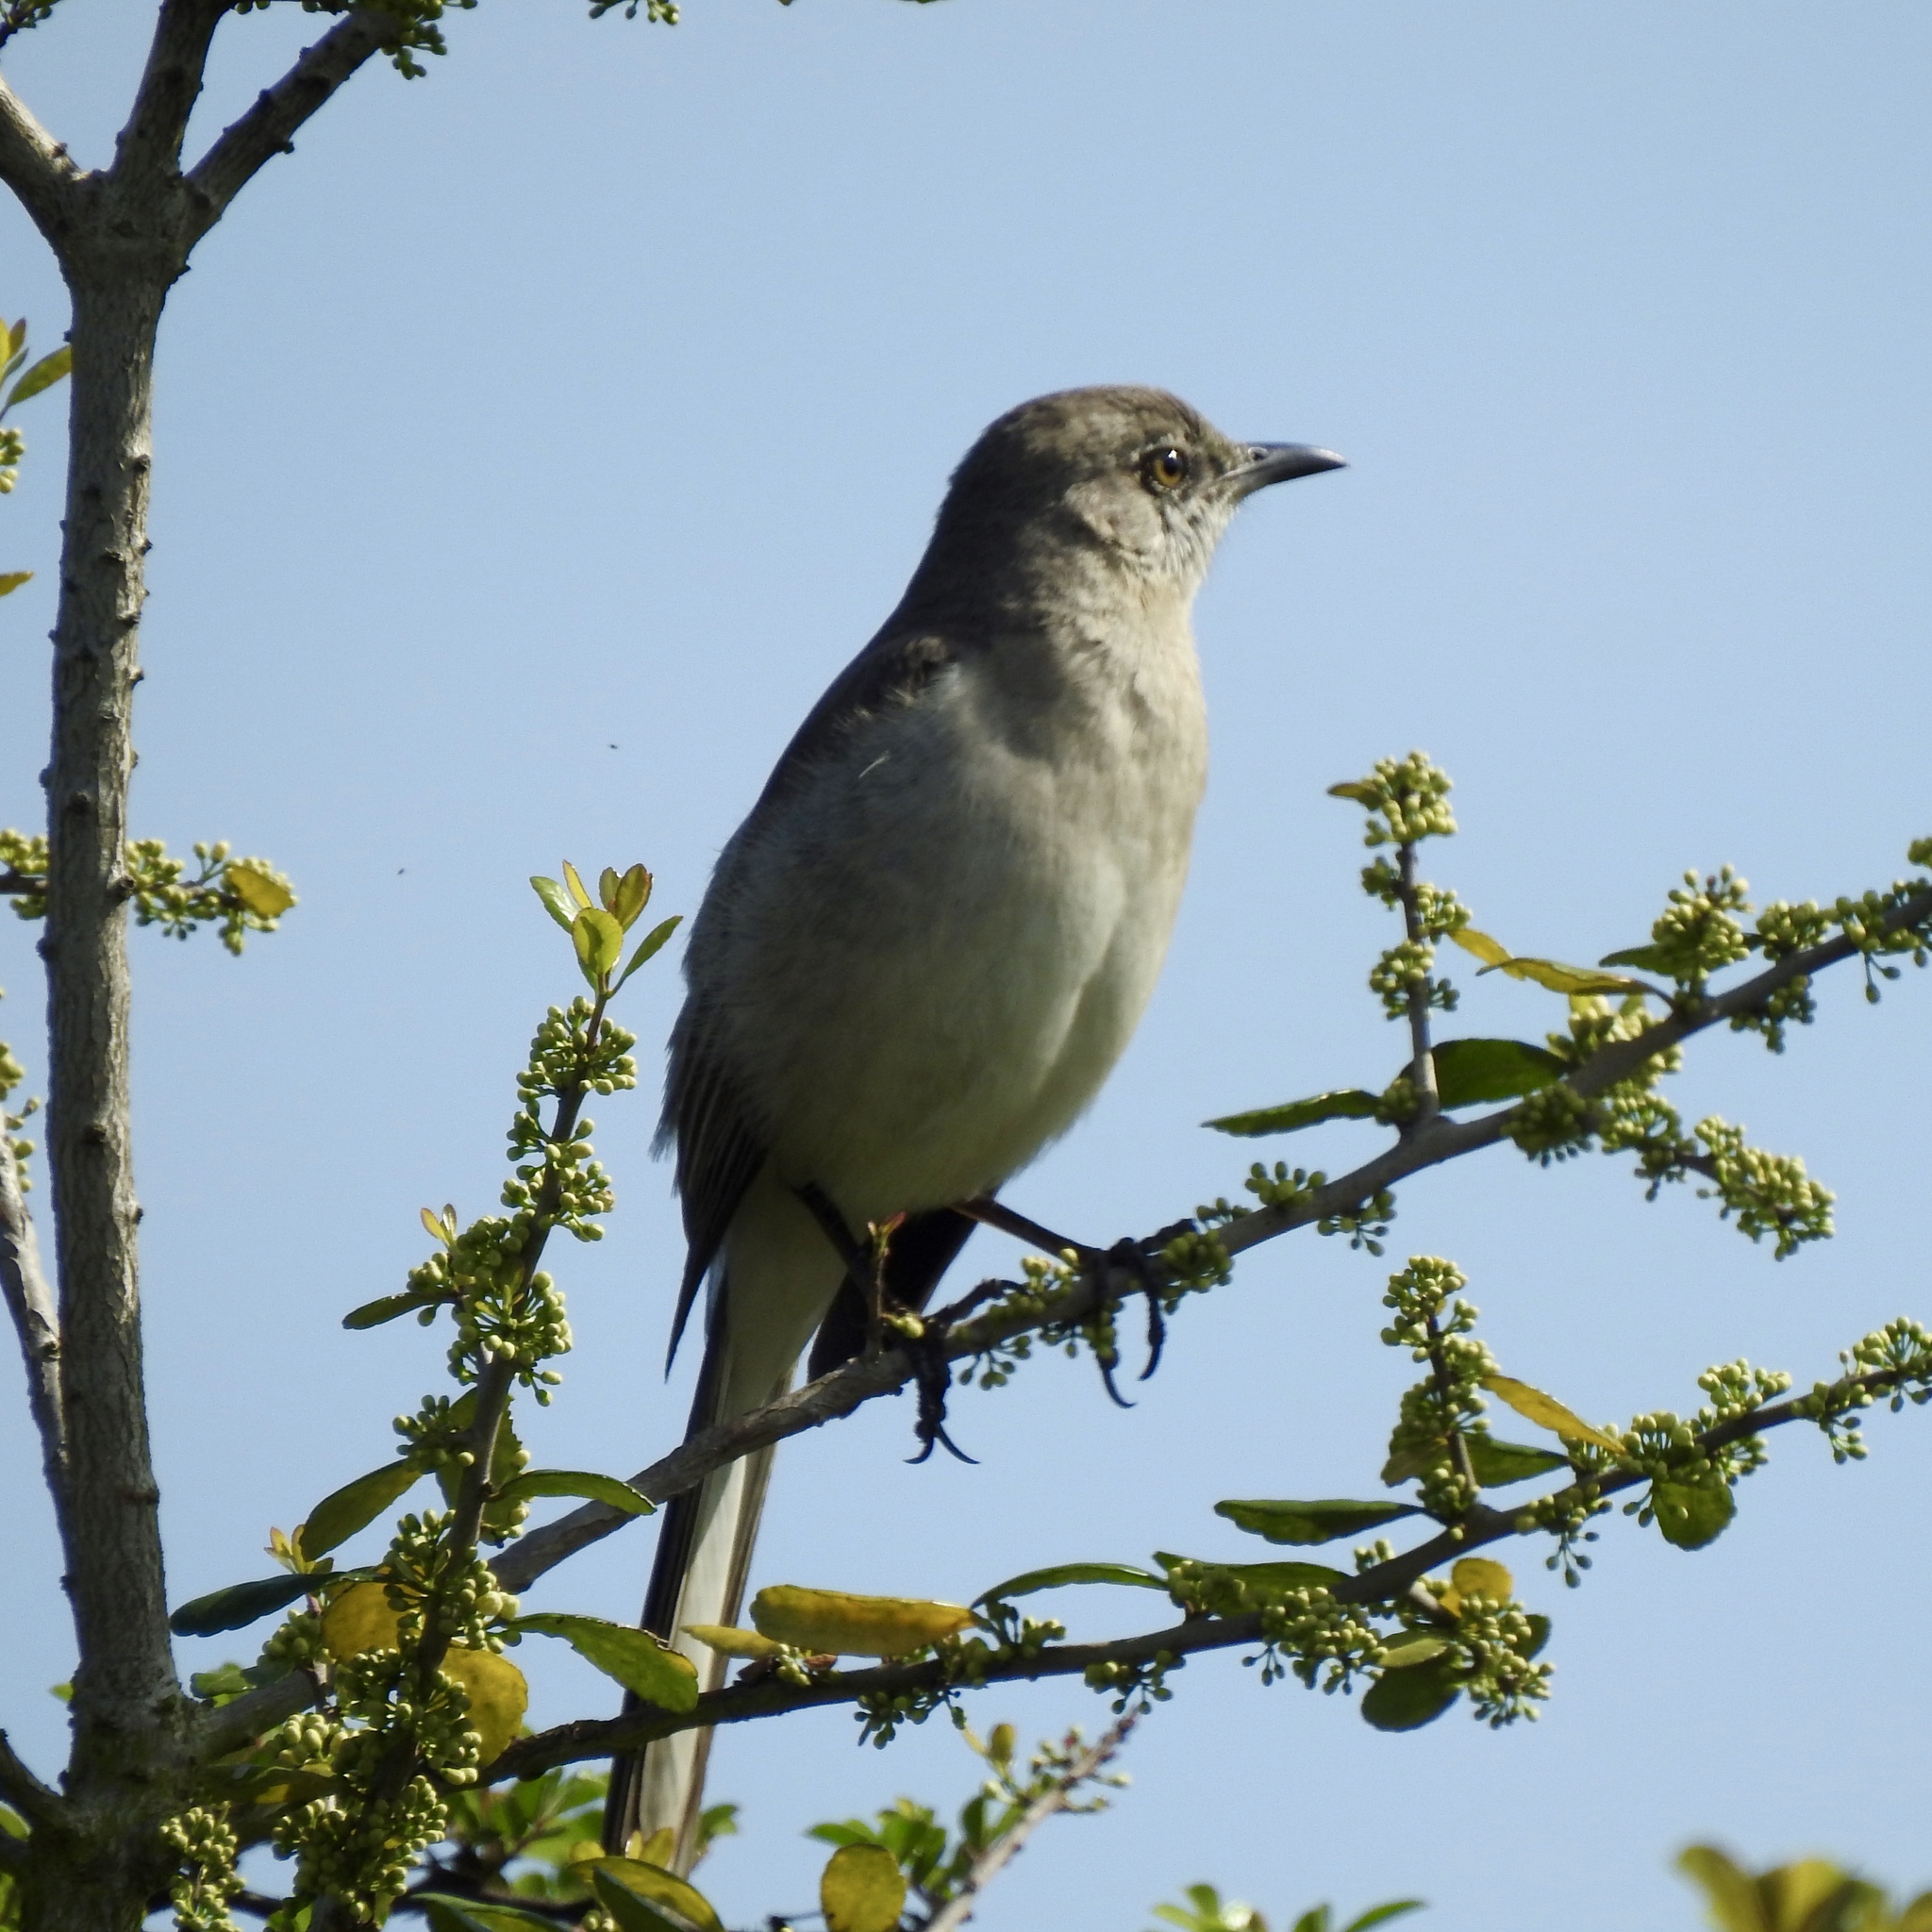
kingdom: Animalia
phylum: Chordata
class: Aves
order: Passeriformes
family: Mimidae
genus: Mimus
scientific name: Mimus polyglottos
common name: Northern mockingbird
